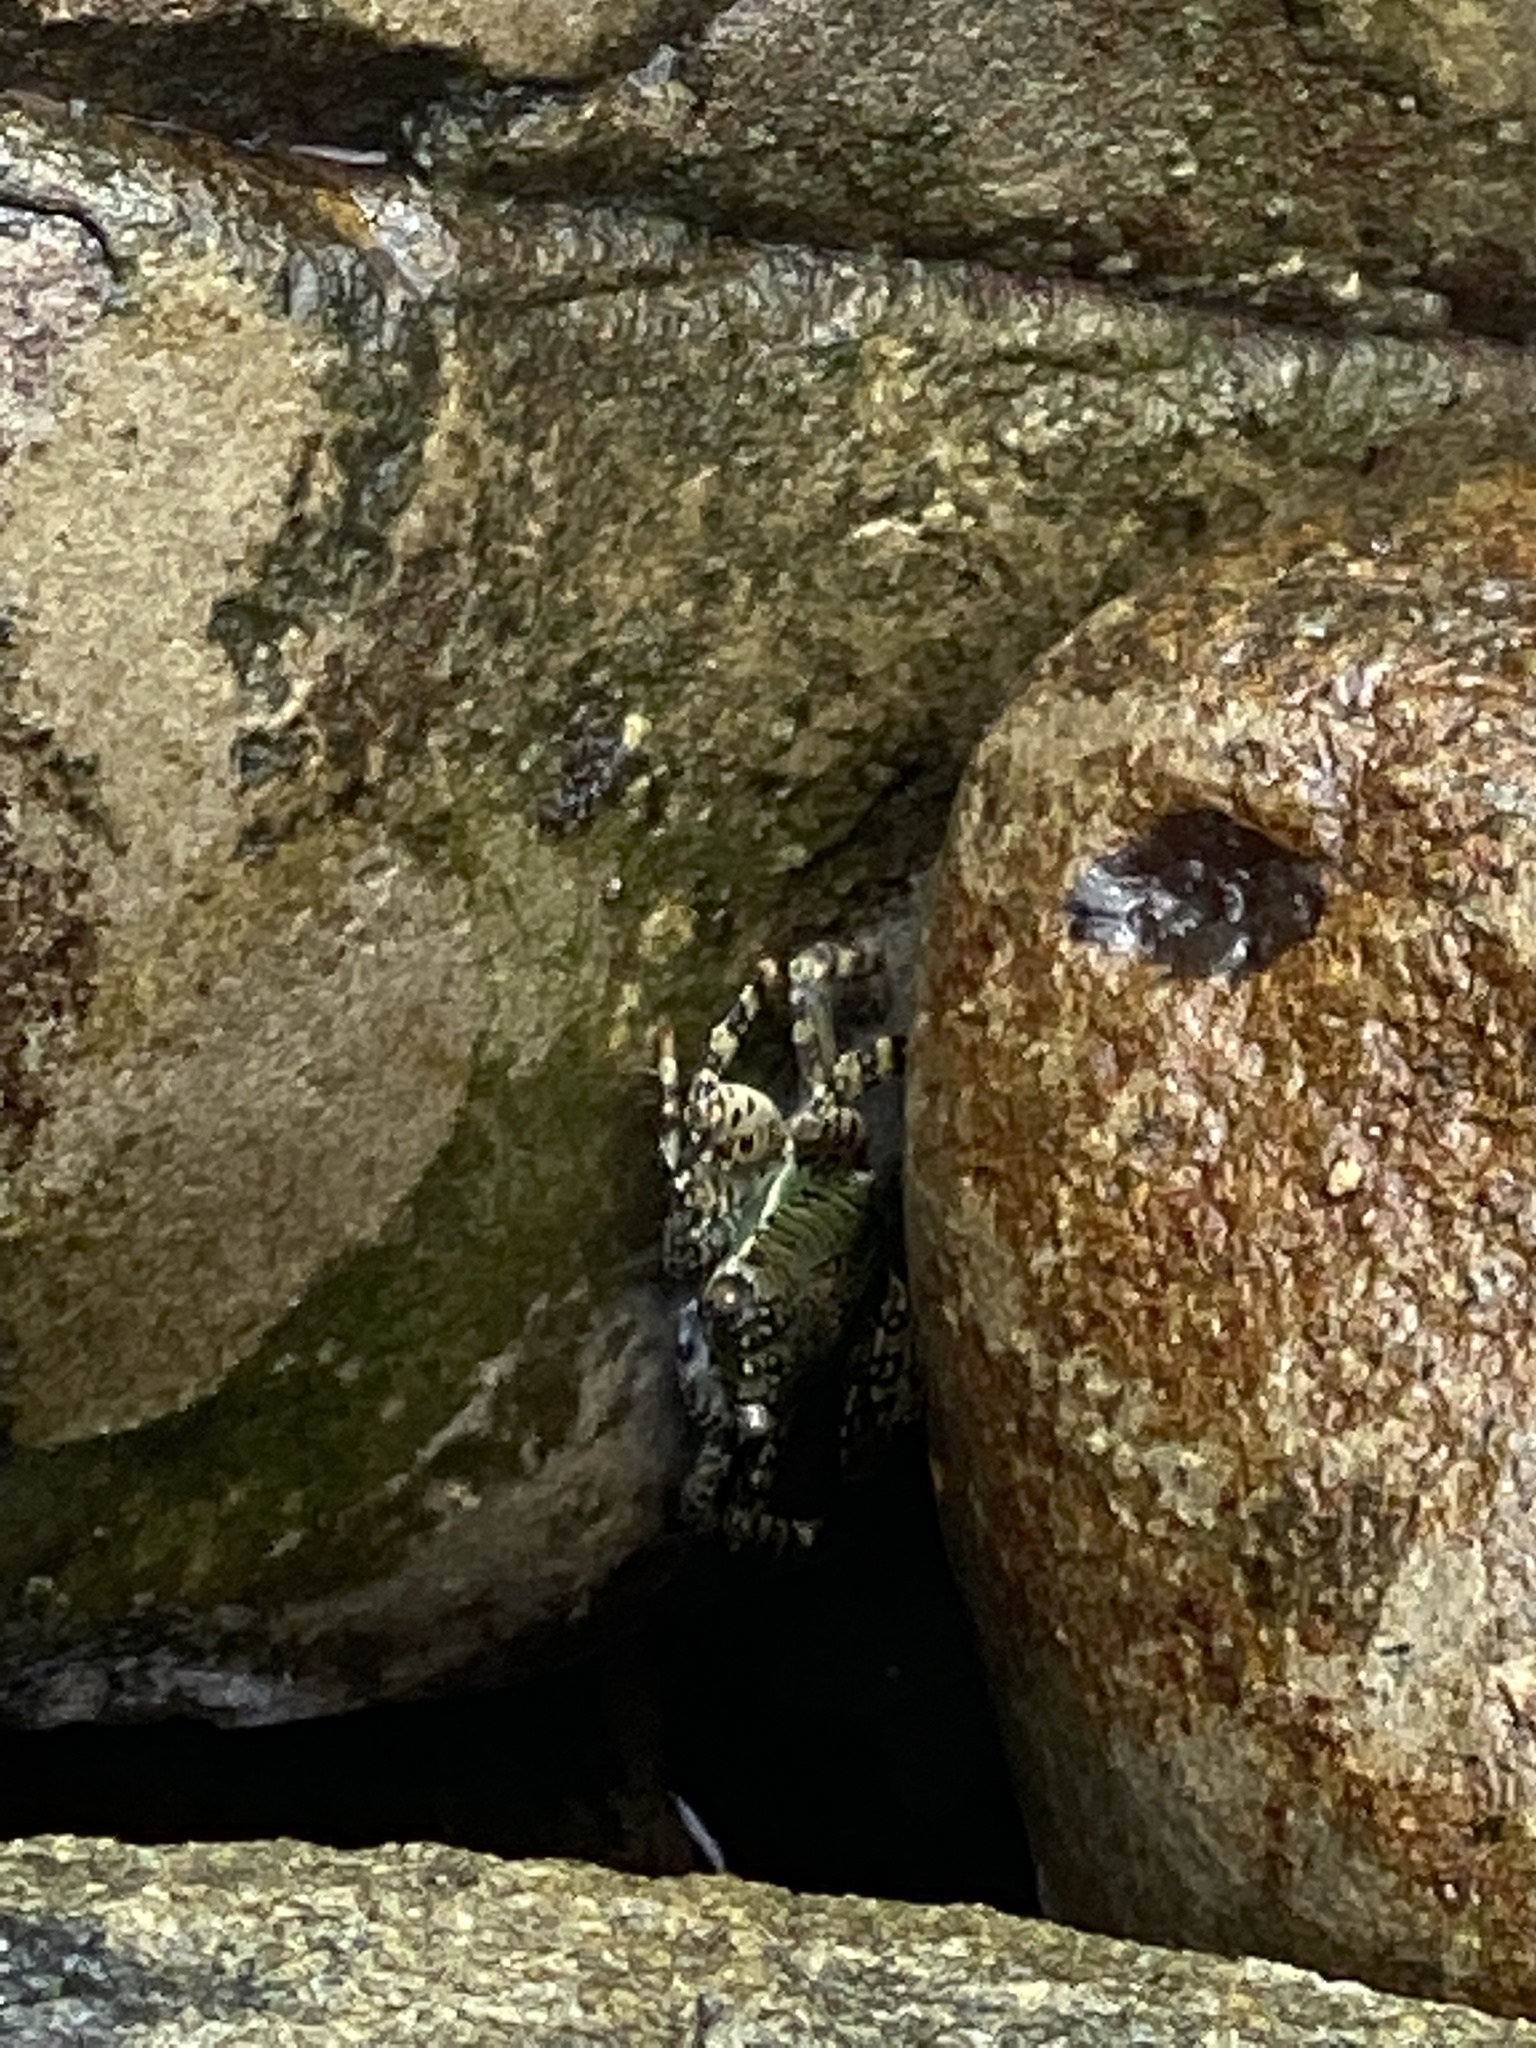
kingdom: Animalia
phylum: Arthropoda
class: Malacostraca
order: Decapoda
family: Grapsidae
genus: Grapsus
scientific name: Grapsus albolineatus
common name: Mottled lightfoot crab
